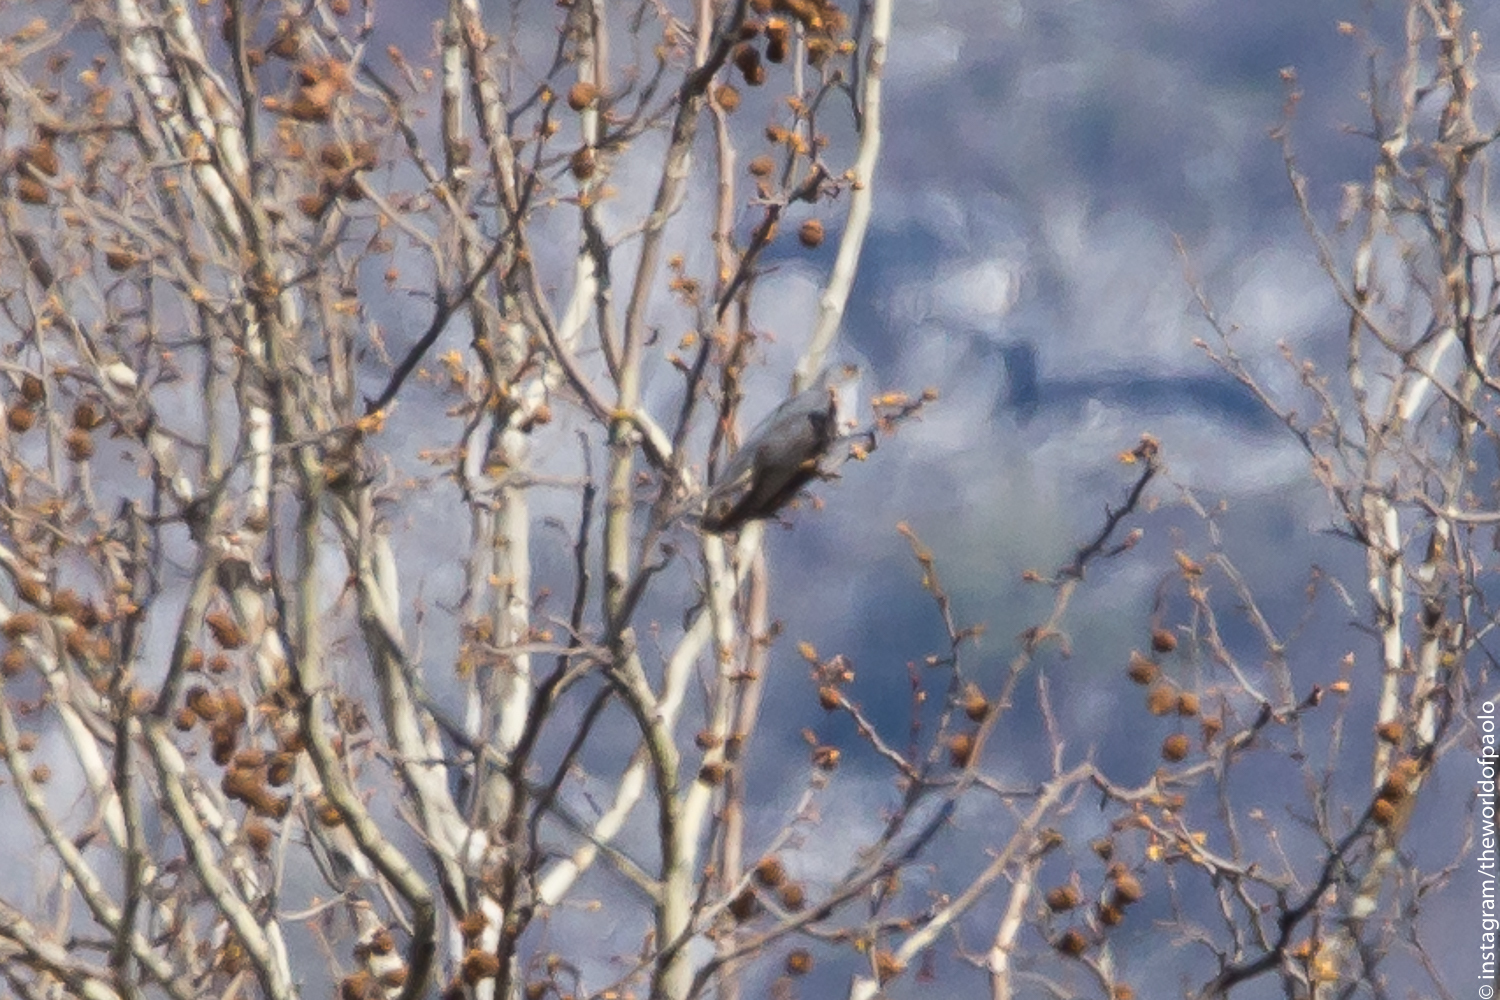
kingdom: Animalia
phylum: Chordata
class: Aves
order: Cuculiformes
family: Cuculidae
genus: Cuculus
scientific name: Cuculus canorus
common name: Common cuckoo
